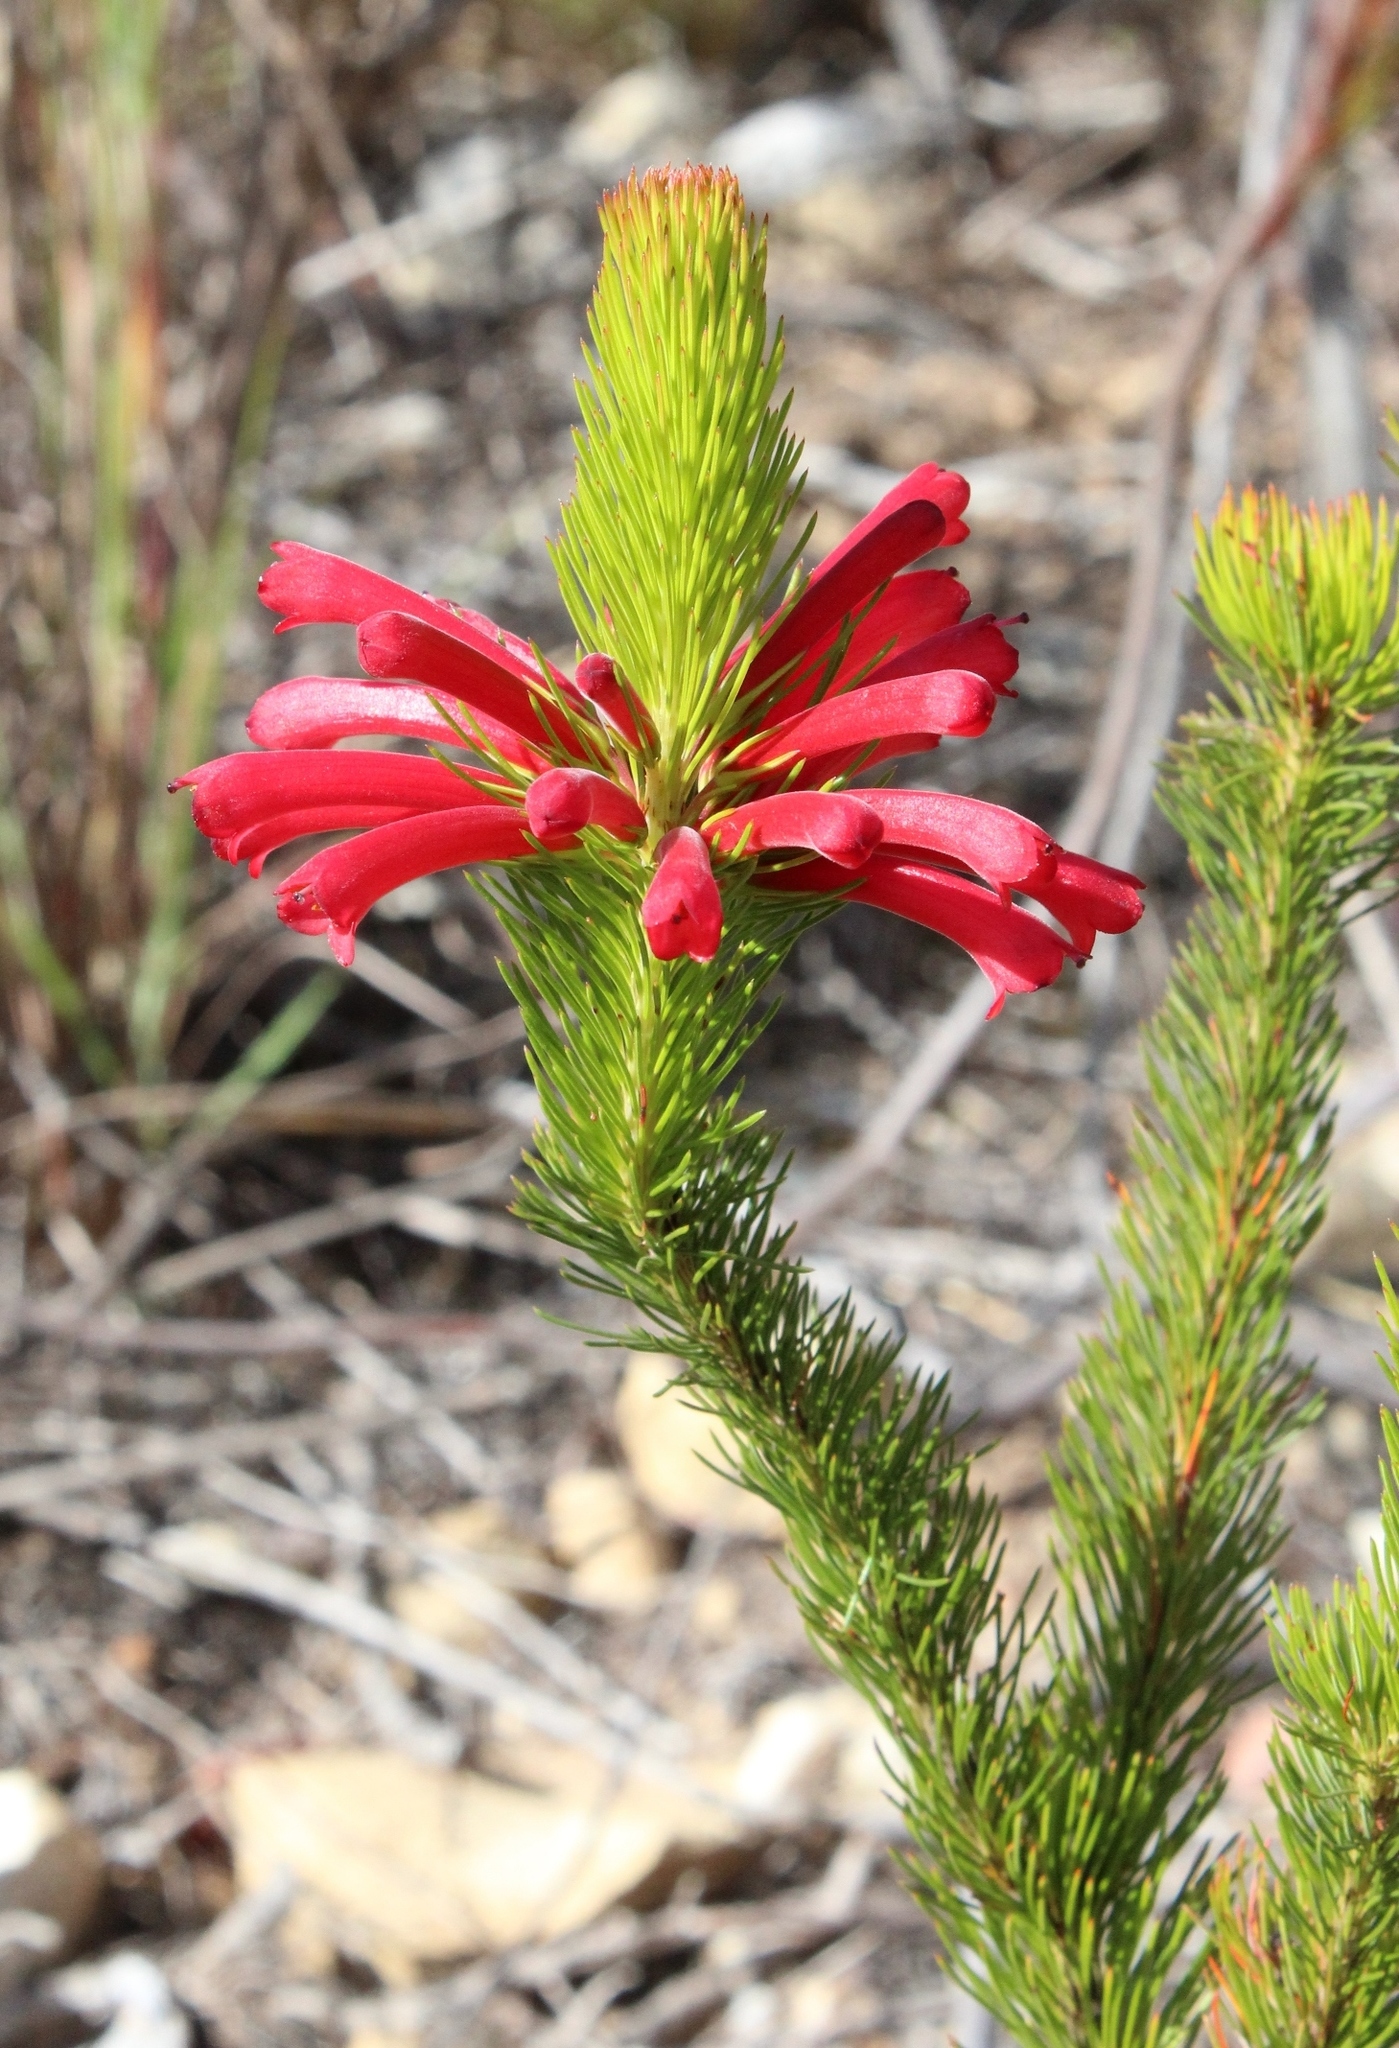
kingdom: Plantae
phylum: Tracheophyta
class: Magnoliopsida
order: Ericales
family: Ericaceae
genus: Erica
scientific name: Erica vestita
